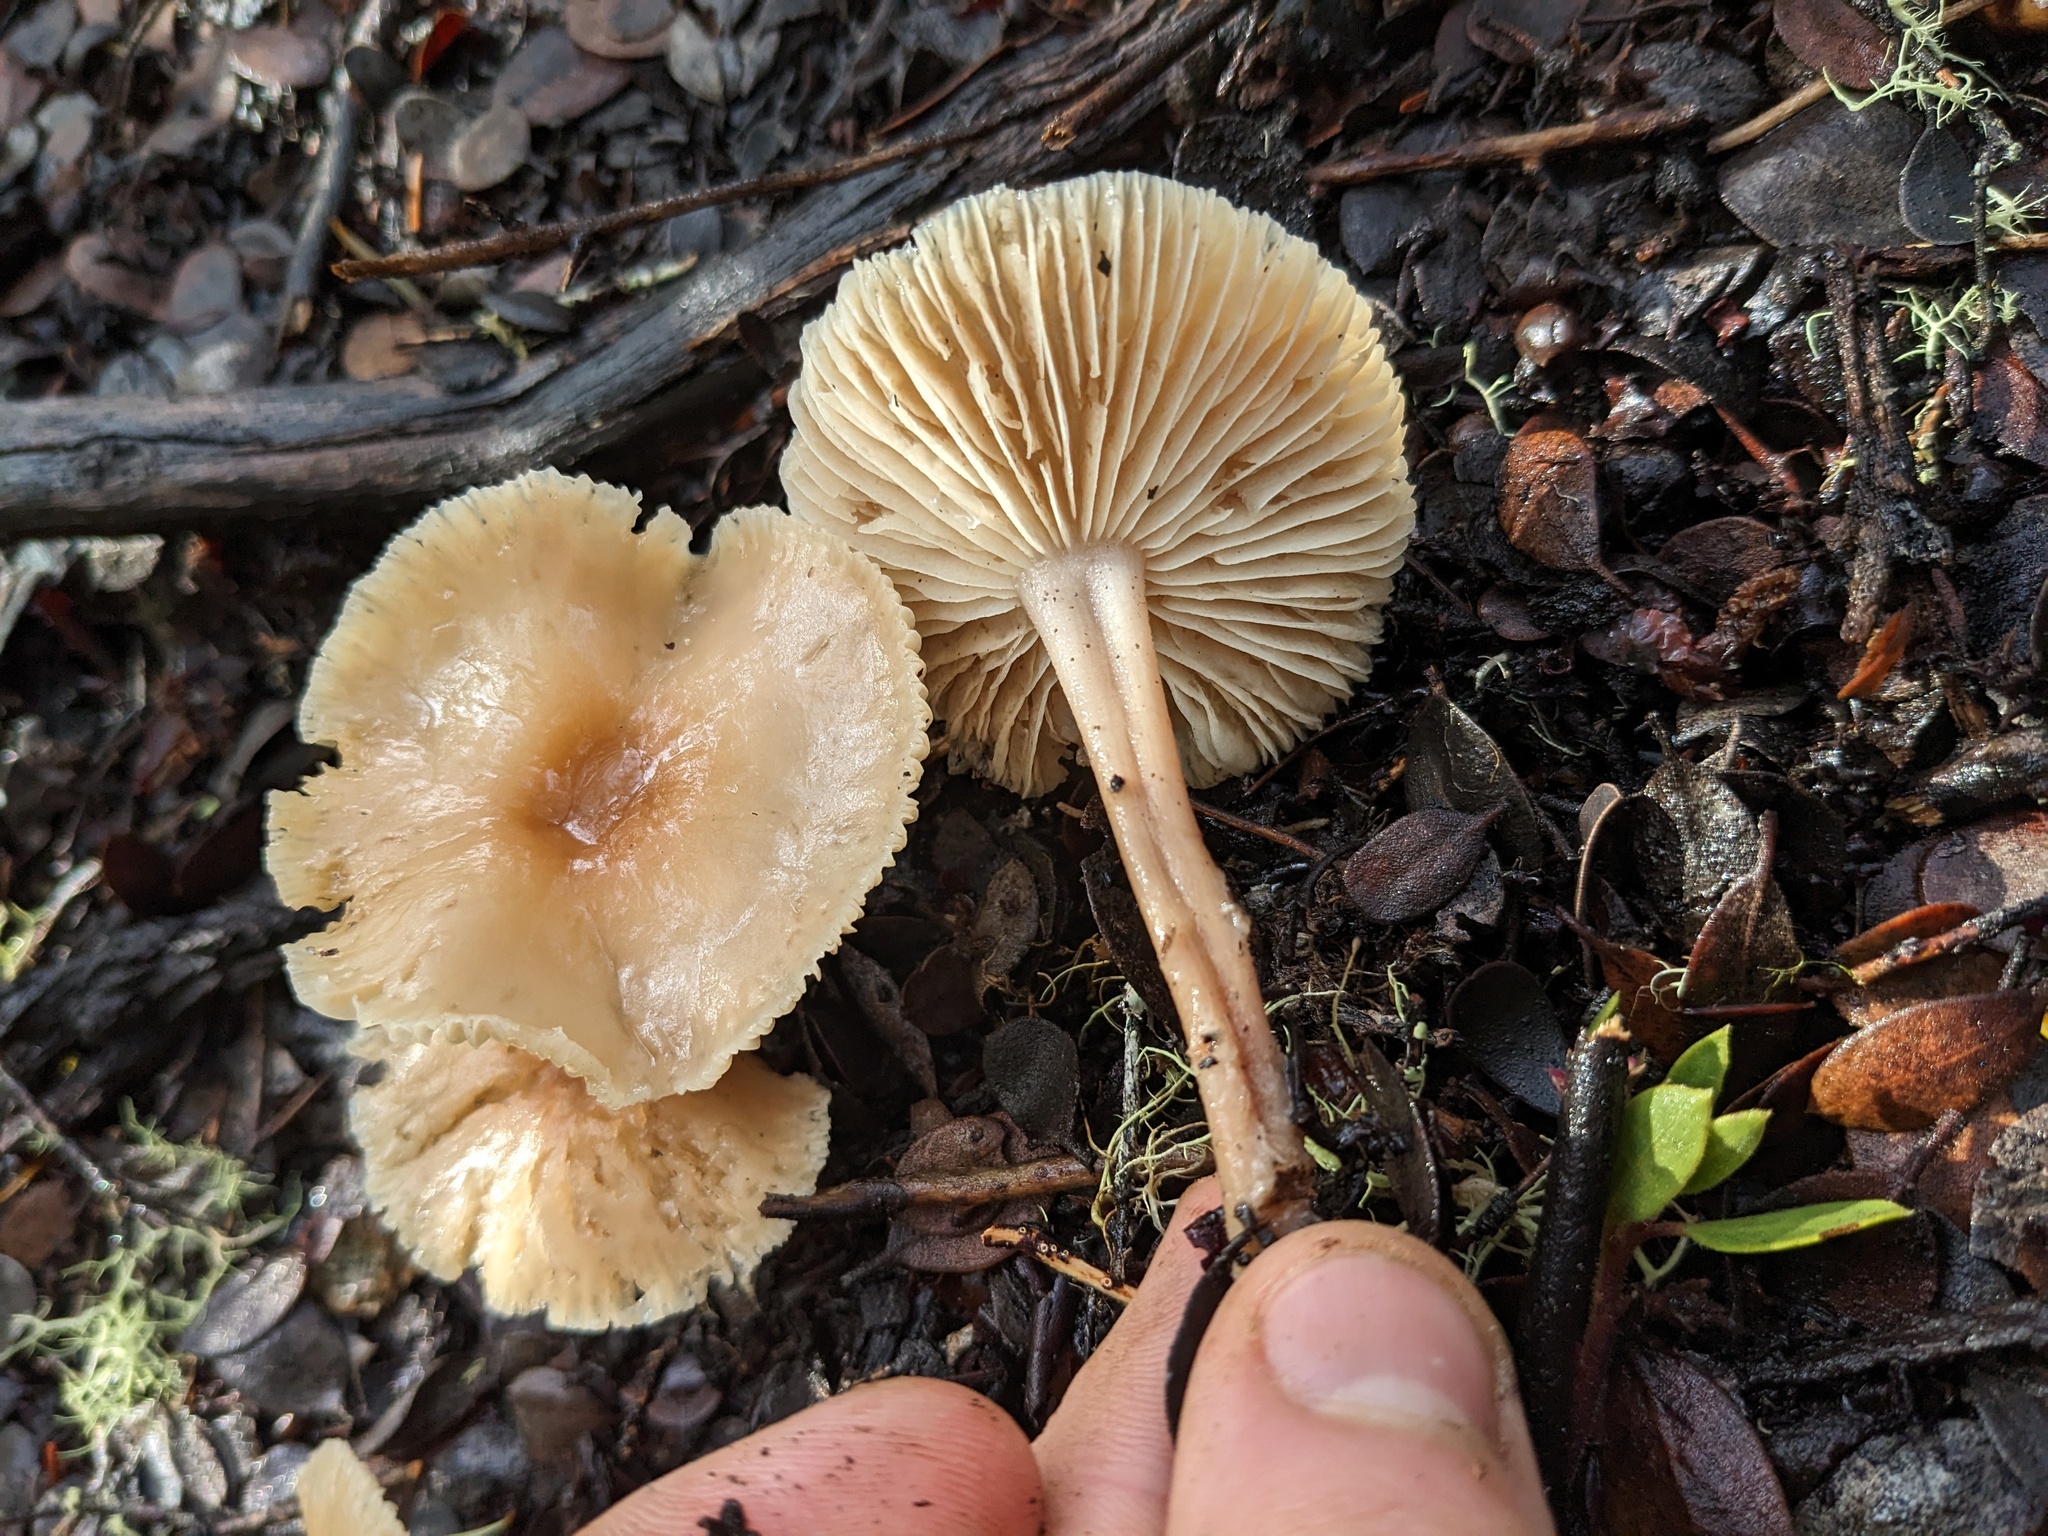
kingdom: Fungi
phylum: Basidiomycota
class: Agaricomycetes
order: Agaricales
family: Omphalotaceae
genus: Gymnopus
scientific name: Gymnopus dryophilus
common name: Penny top
